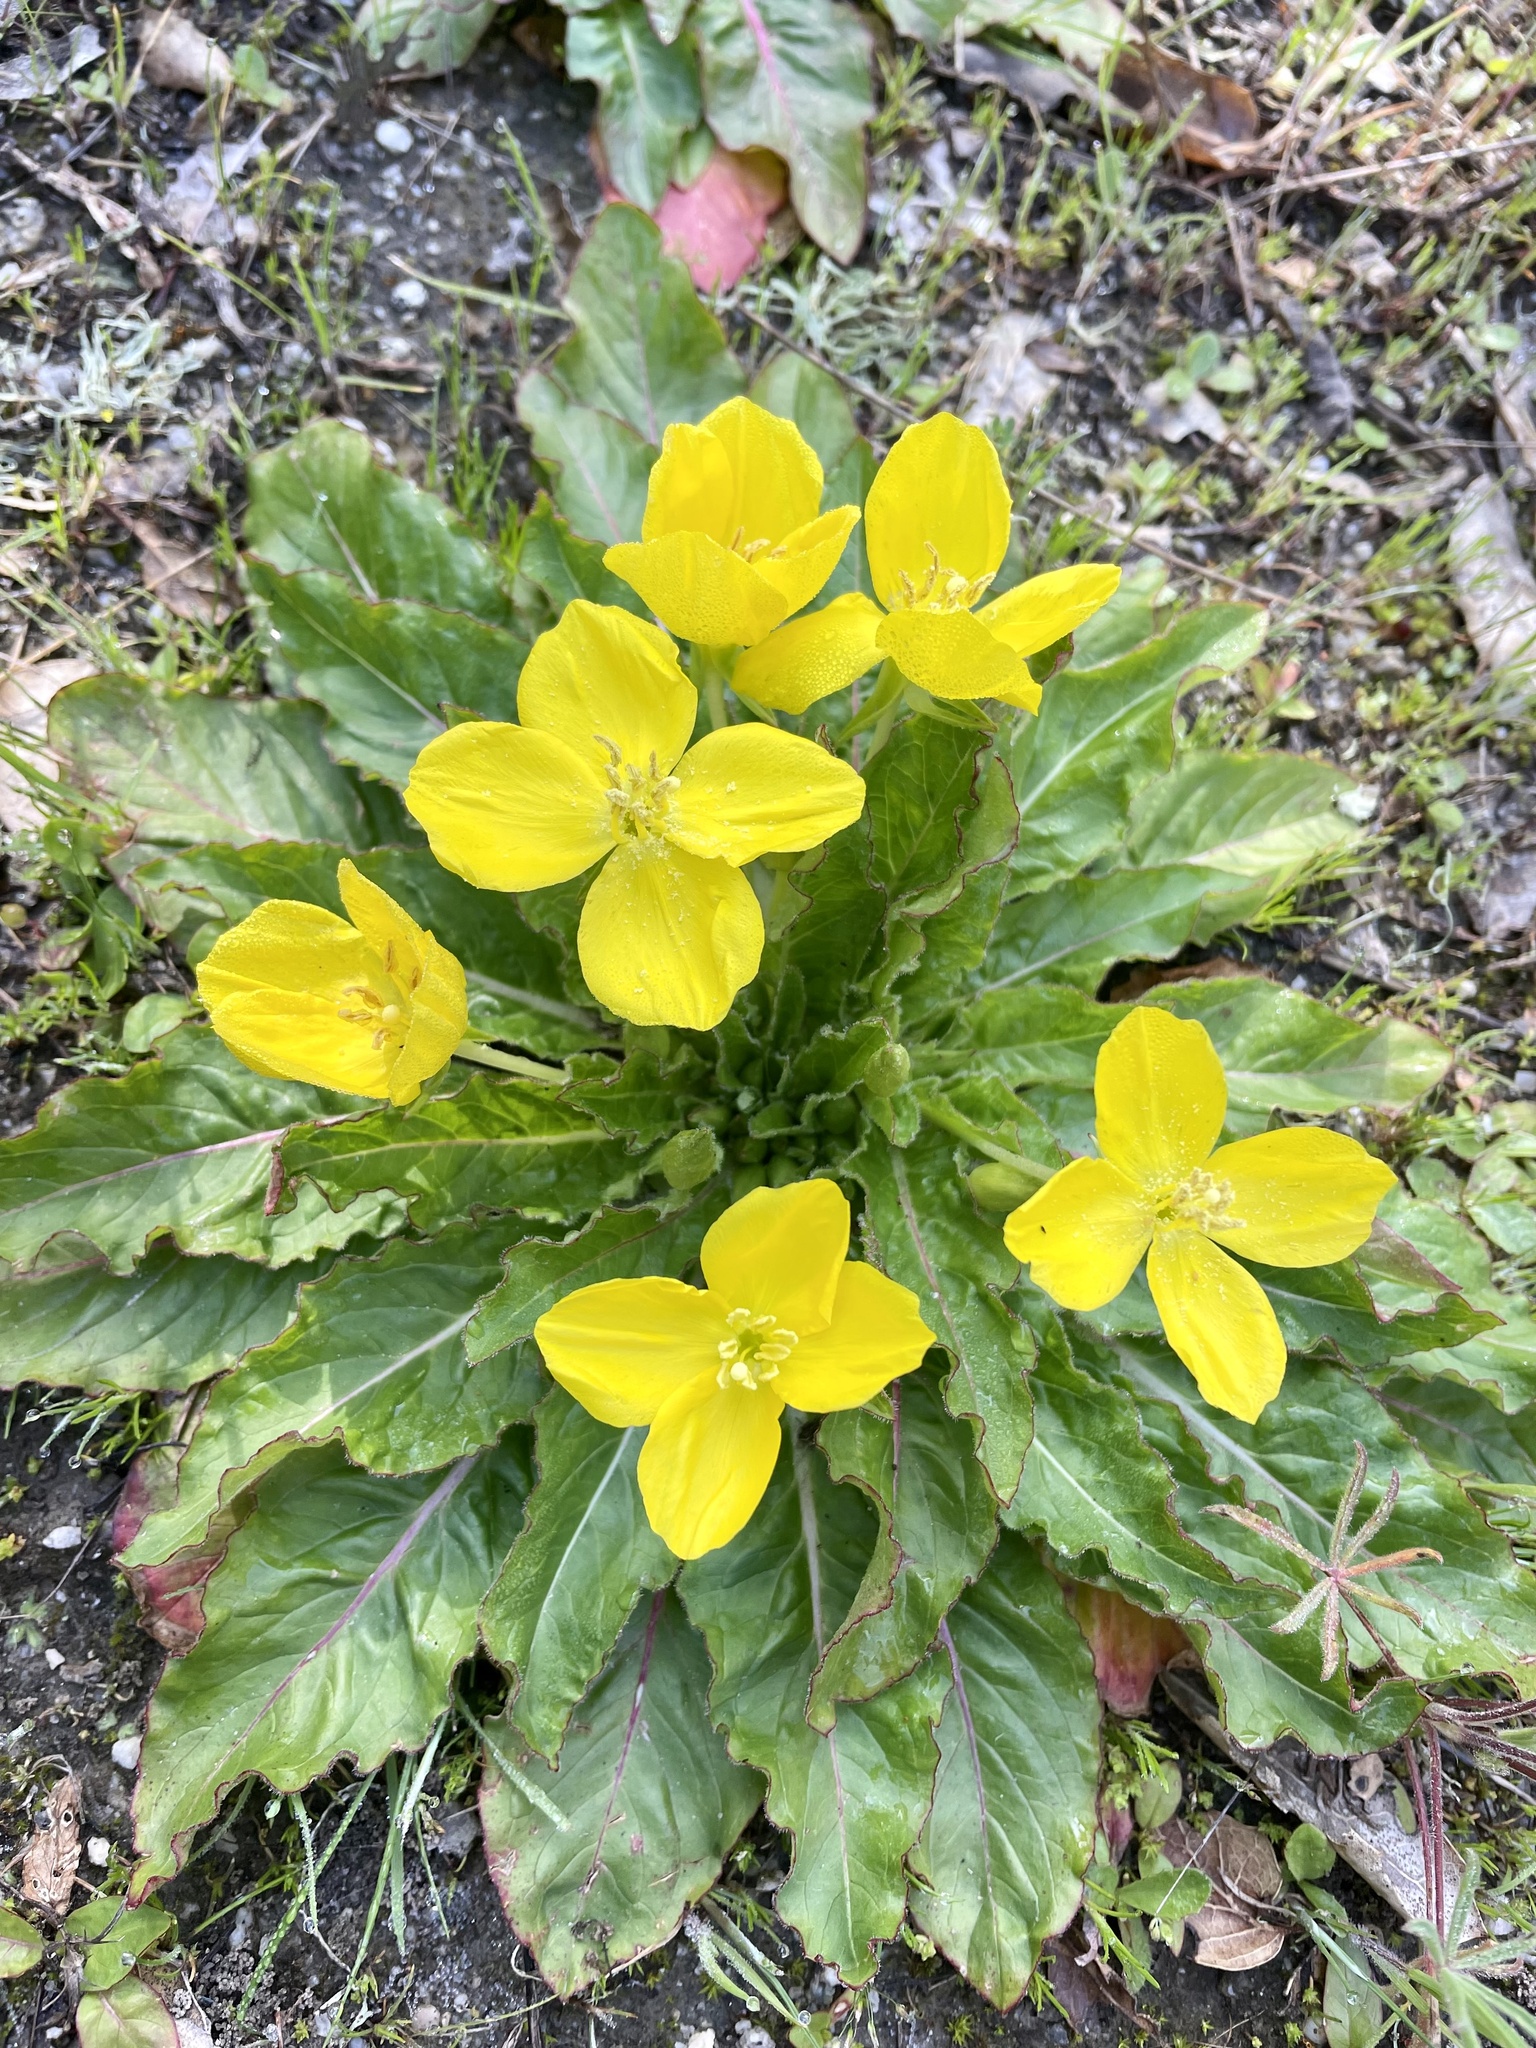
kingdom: Plantae
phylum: Tracheophyta
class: Magnoliopsida
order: Myrtales
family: Onagraceae
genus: Taraxia
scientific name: Taraxia ovata
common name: Goldeneggs
